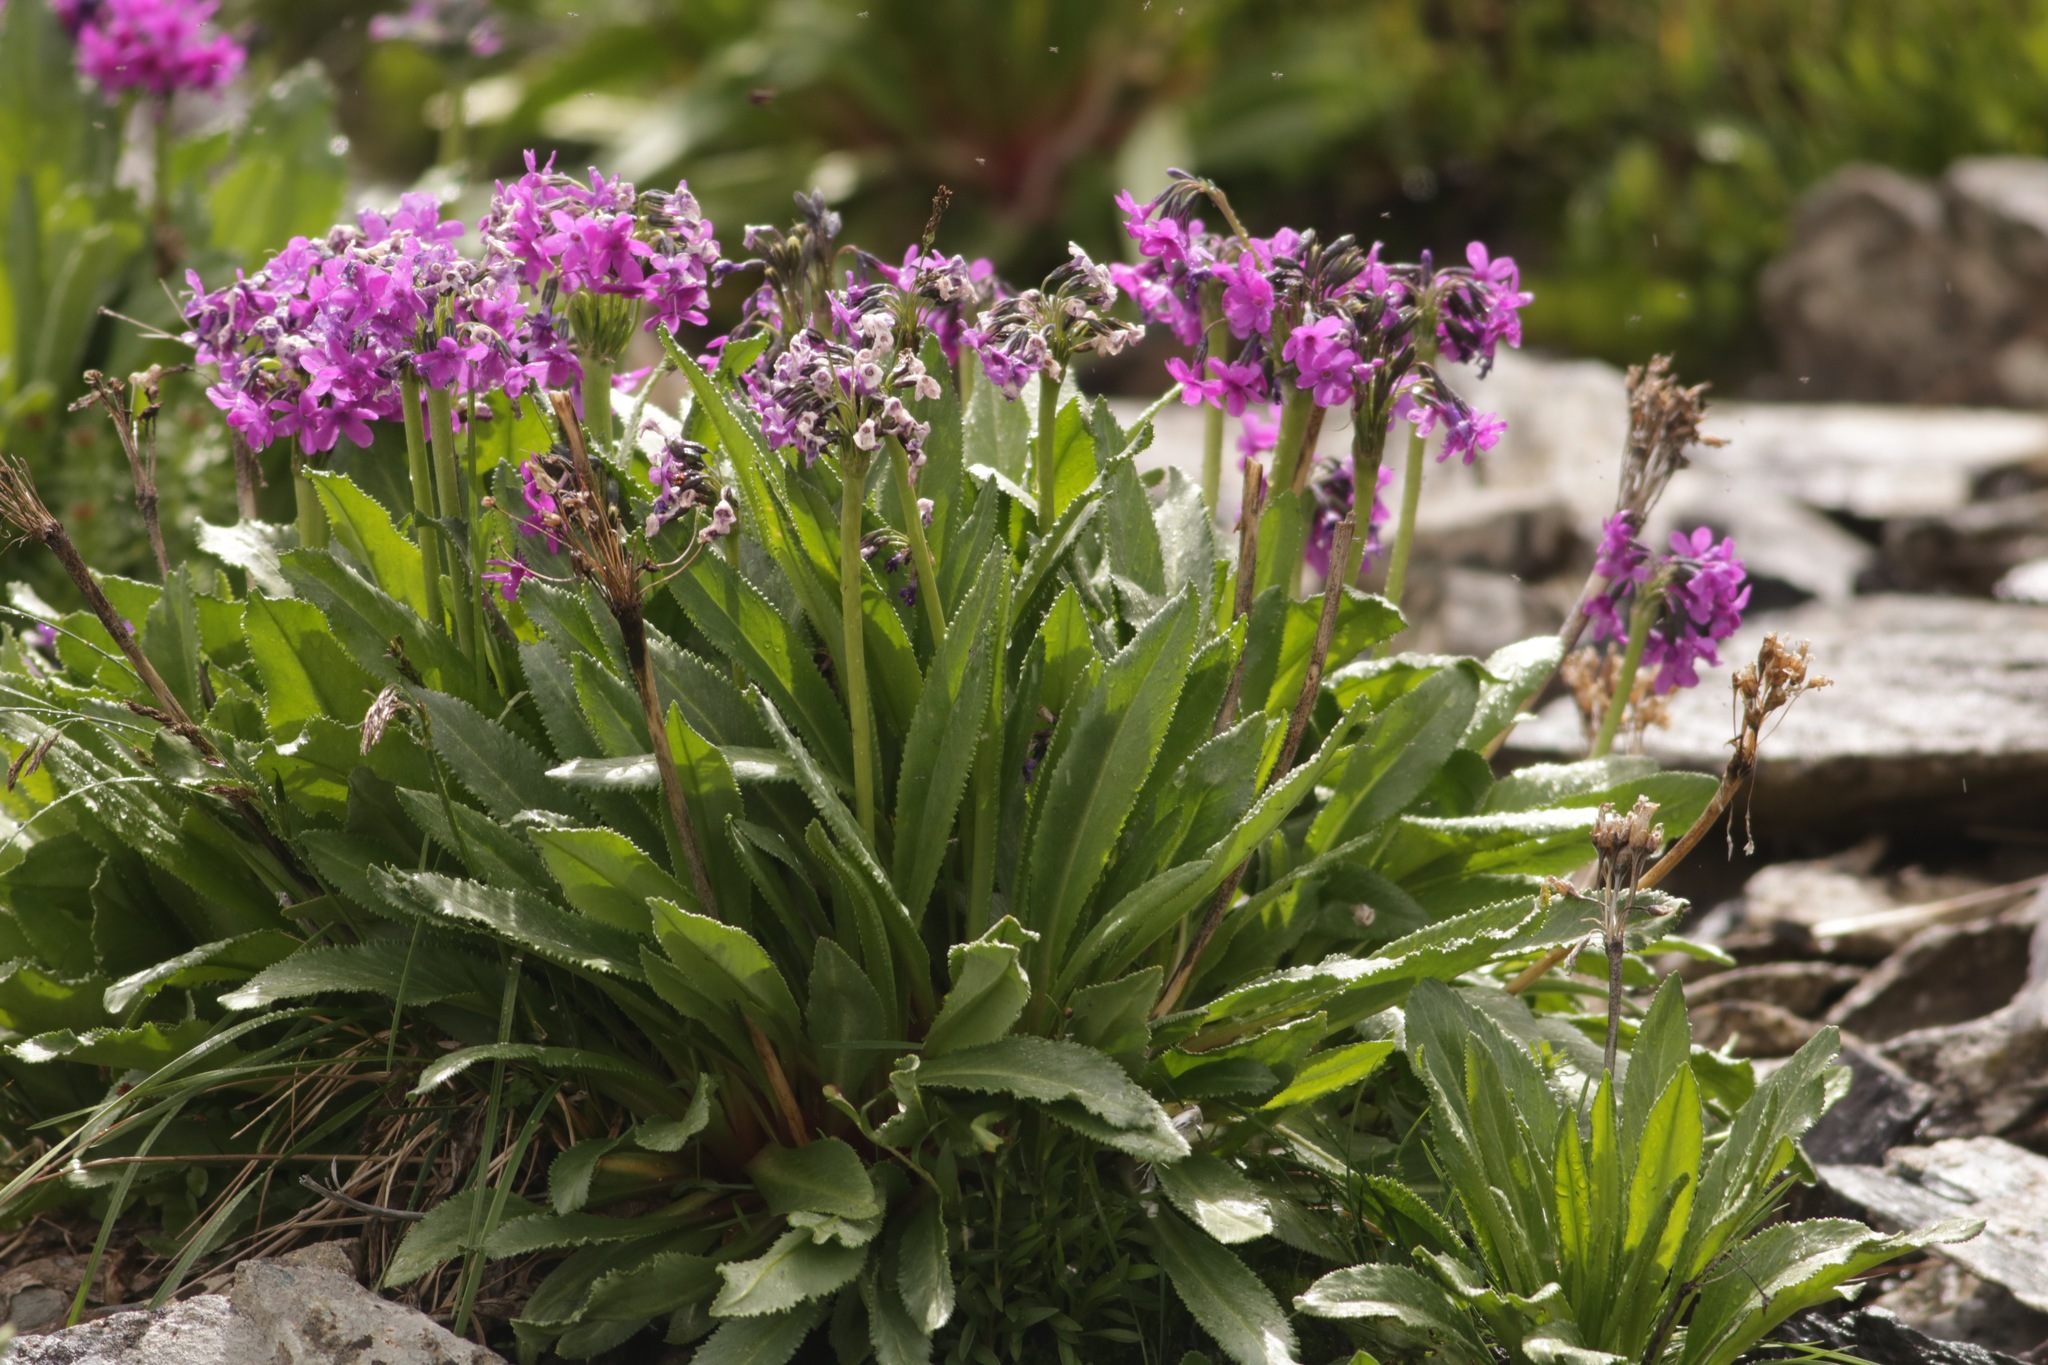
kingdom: Plantae
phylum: Tracheophyta
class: Magnoliopsida
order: Ericales
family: Primulaceae
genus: Primula
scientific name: Primula nivalis
